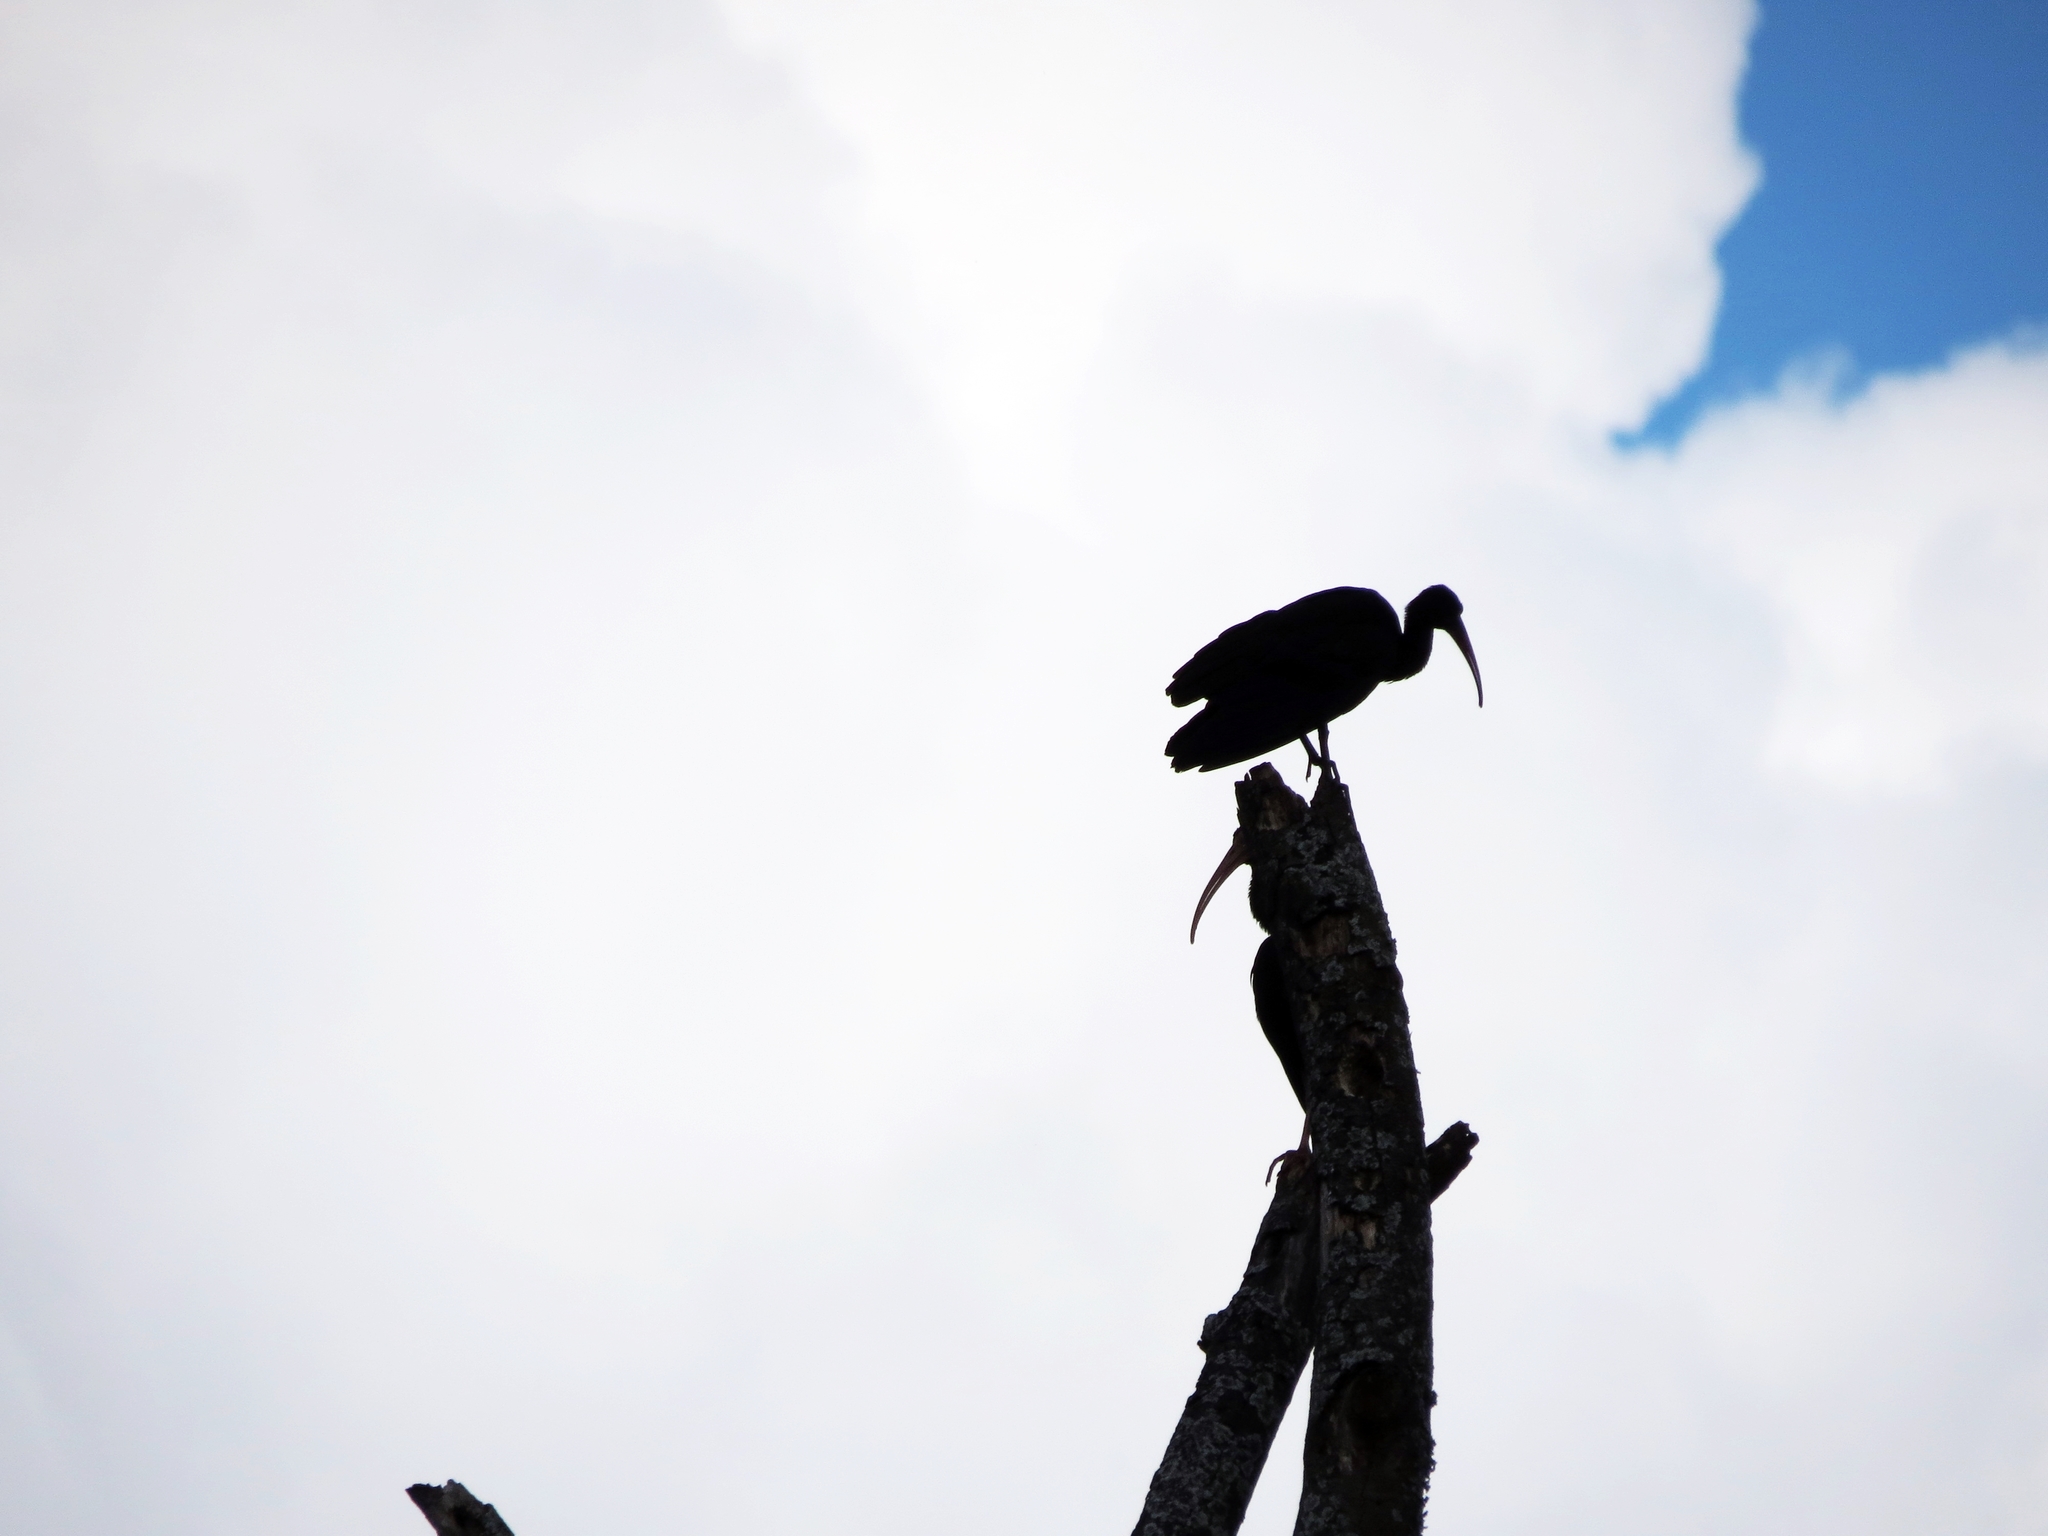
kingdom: Animalia
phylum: Chordata
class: Aves
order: Pelecaniformes
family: Threskiornithidae
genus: Phimosus
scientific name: Phimosus infuscatus
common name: Bare-faced ibis
